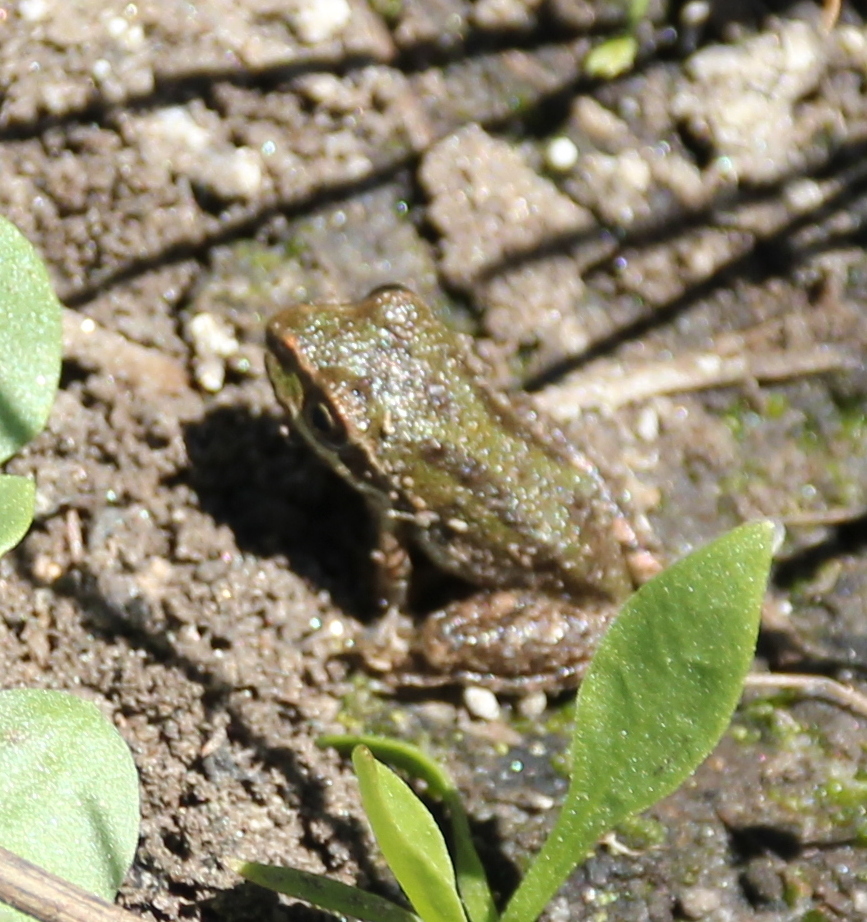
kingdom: Animalia
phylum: Chordata
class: Amphibia
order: Anura
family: Hylidae
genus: Pseudacris
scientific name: Pseudacris regilla
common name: Pacific chorus frog
